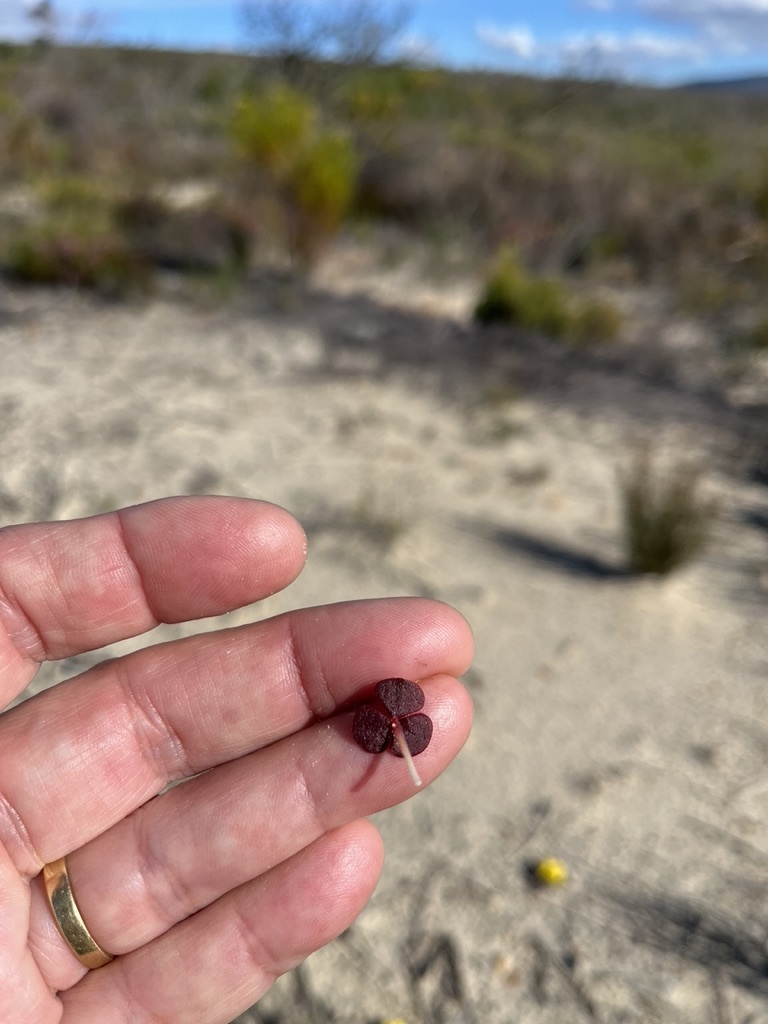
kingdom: Plantae
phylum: Tracheophyta
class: Magnoliopsida
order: Oxalidales
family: Oxalidaceae
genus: Oxalis
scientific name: Oxalis luteola
